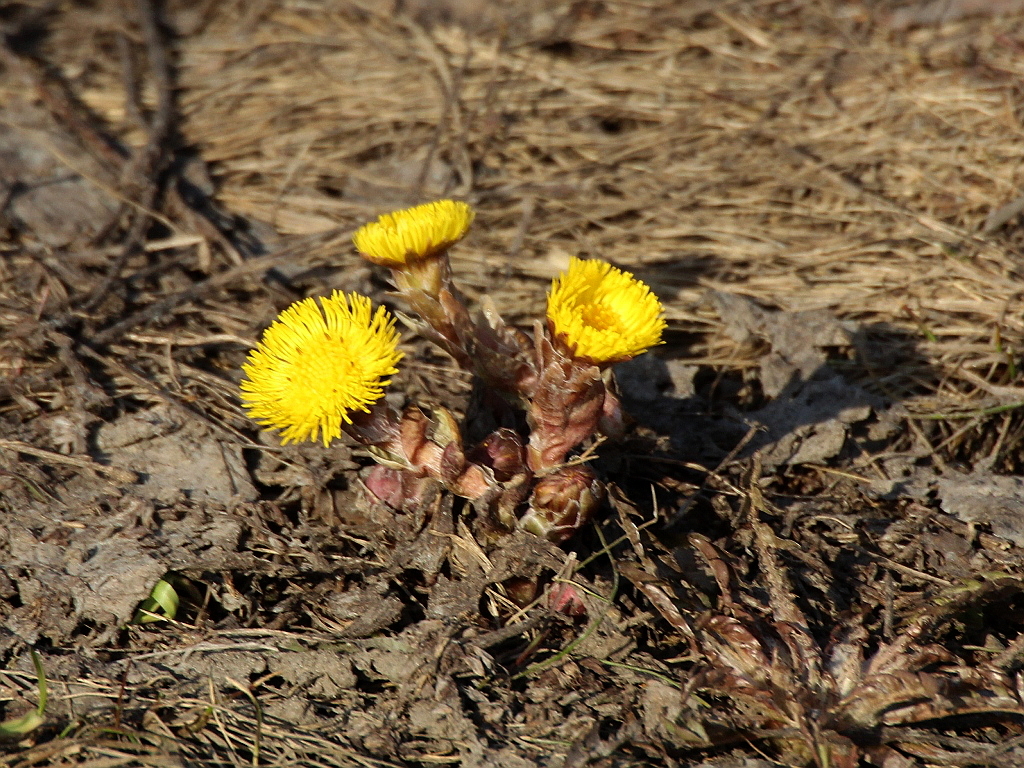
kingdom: Plantae
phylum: Tracheophyta
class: Magnoliopsida
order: Asterales
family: Asteraceae
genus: Tussilago
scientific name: Tussilago farfara
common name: Coltsfoot
